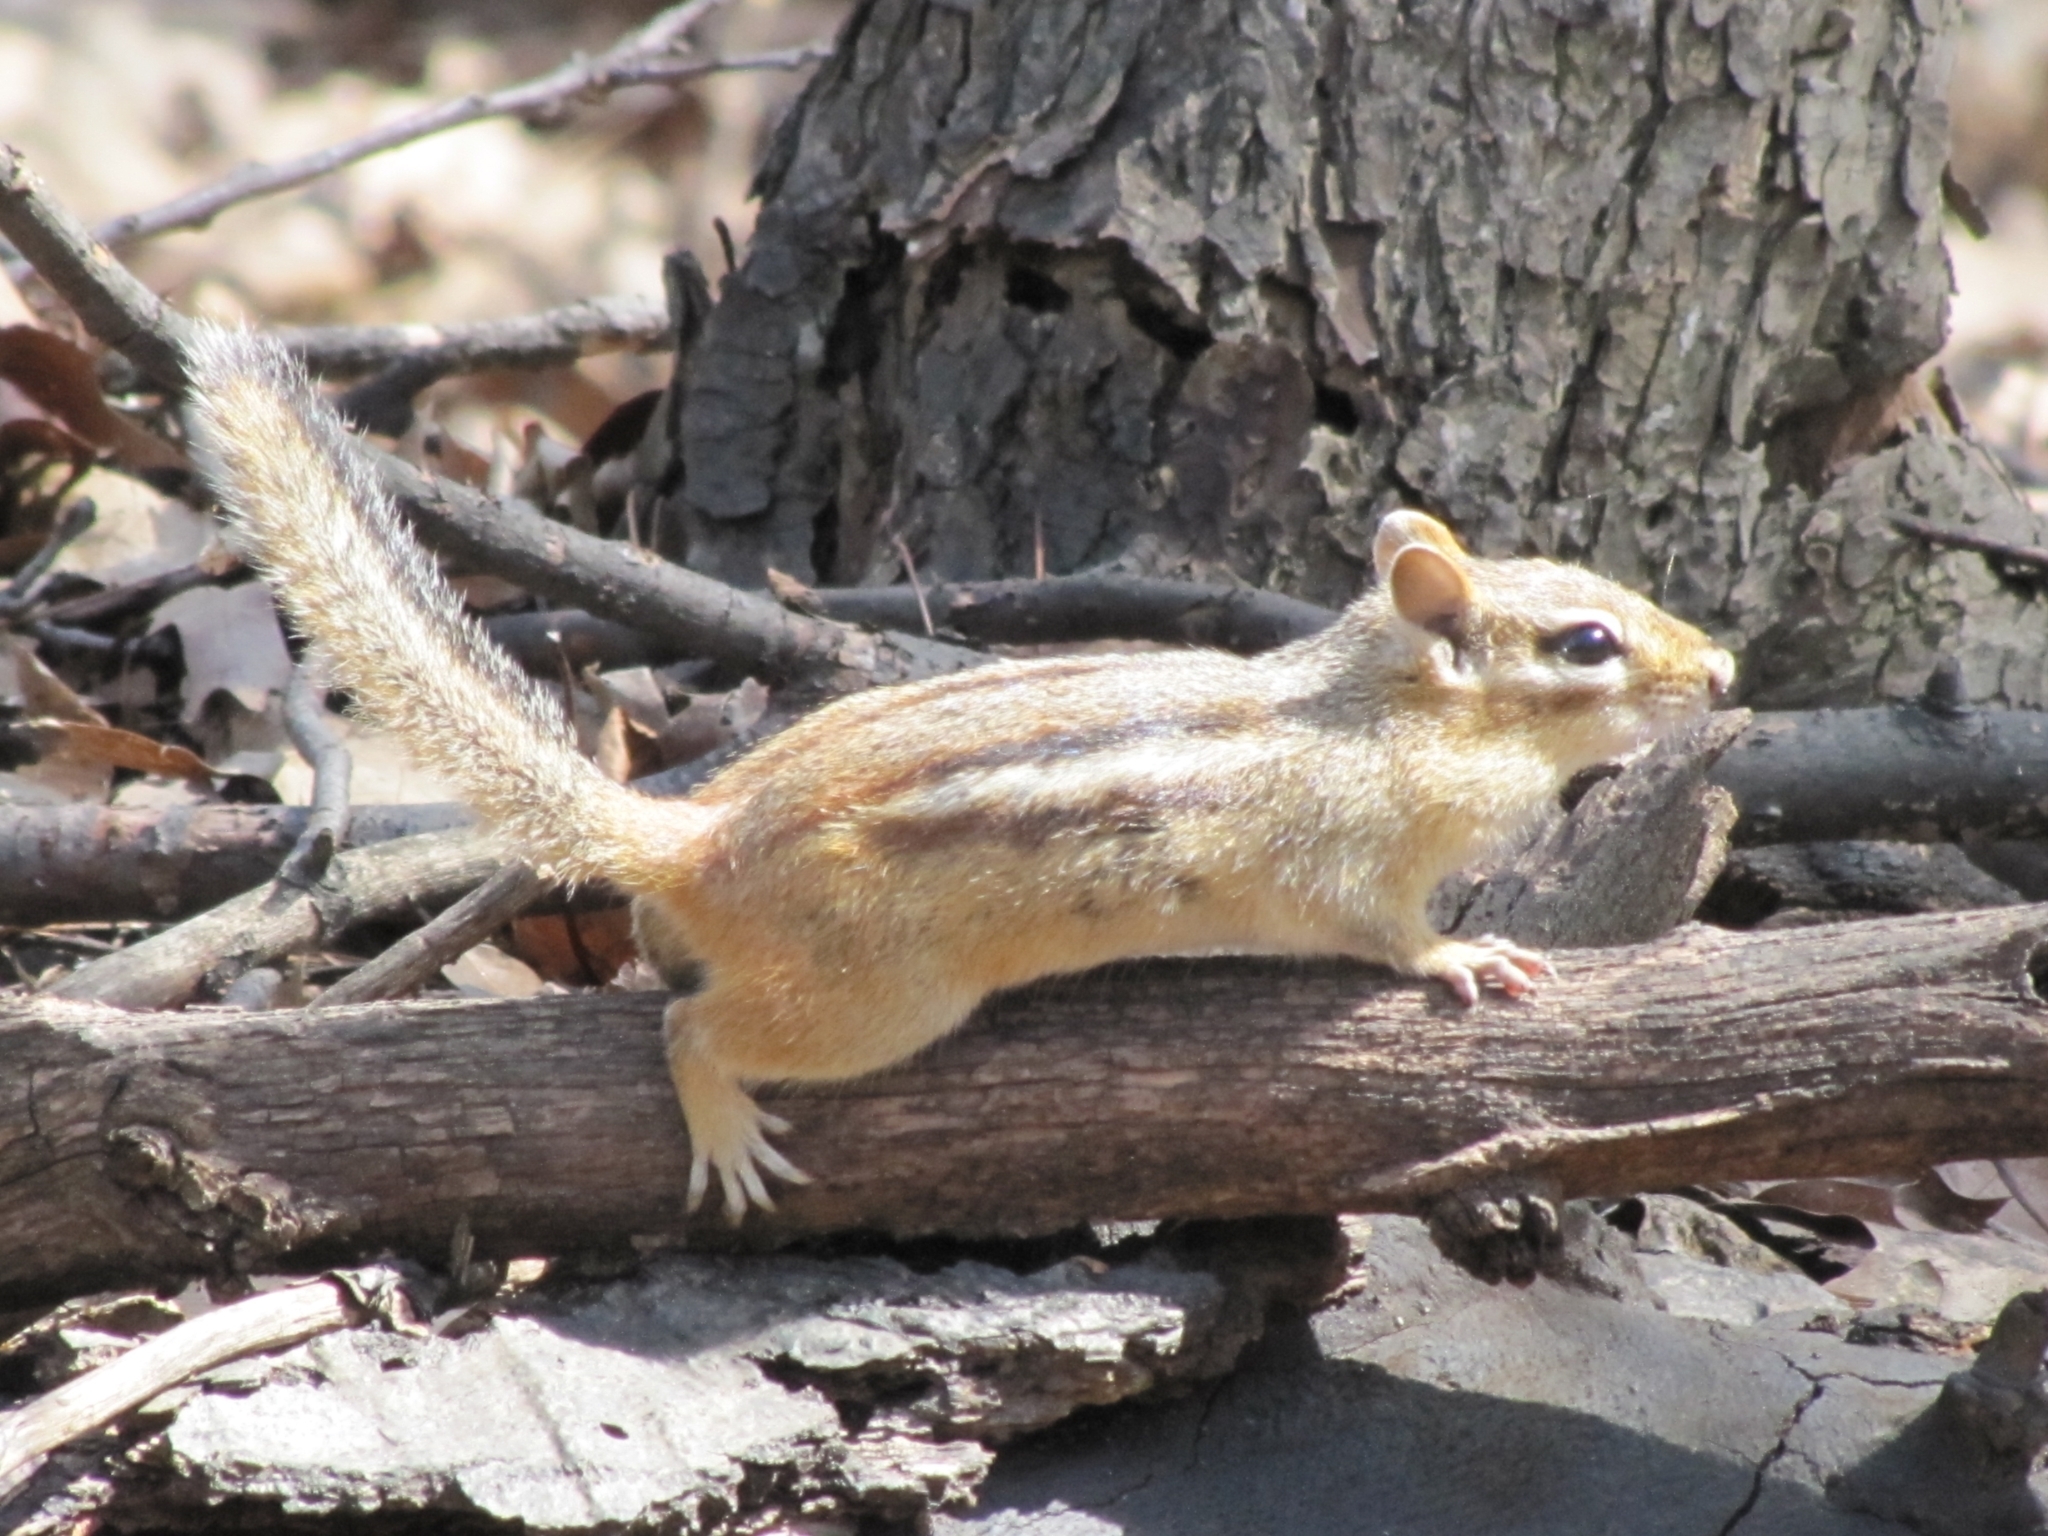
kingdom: Animalia
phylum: Chordata
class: Mammalia
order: Rodentia
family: Sciuridae
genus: Tamias
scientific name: Tamias striatus
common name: Eastern chipmunk
